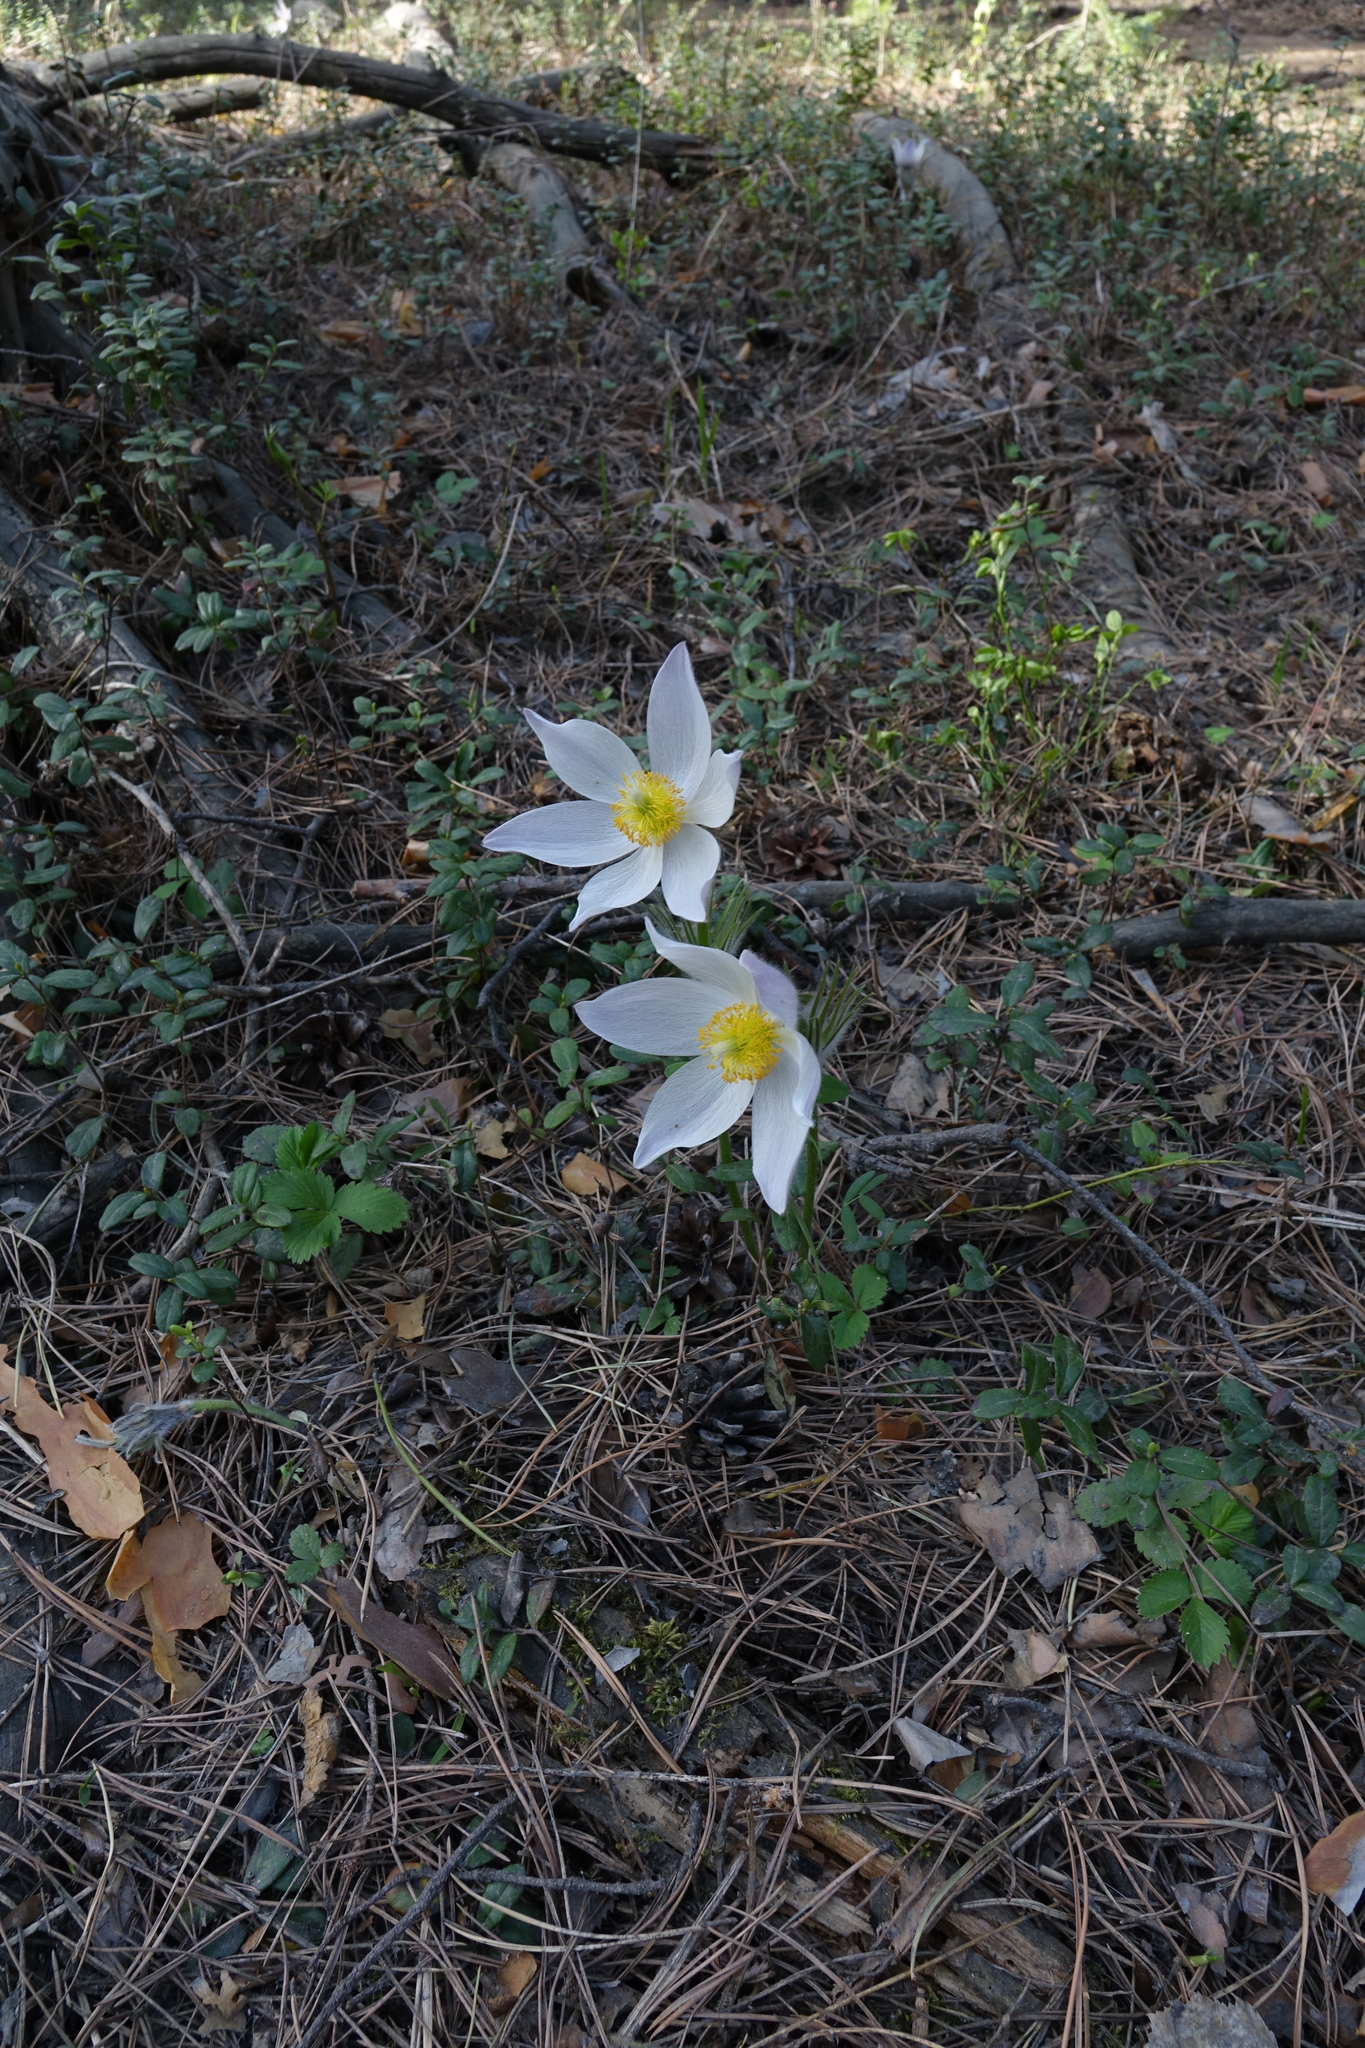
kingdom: Plantae
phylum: Tracheophyta
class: Magnoliopsida
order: Ranunculales
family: Ranunculaceae
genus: Pulsatilla
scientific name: Pulsatilla patens
